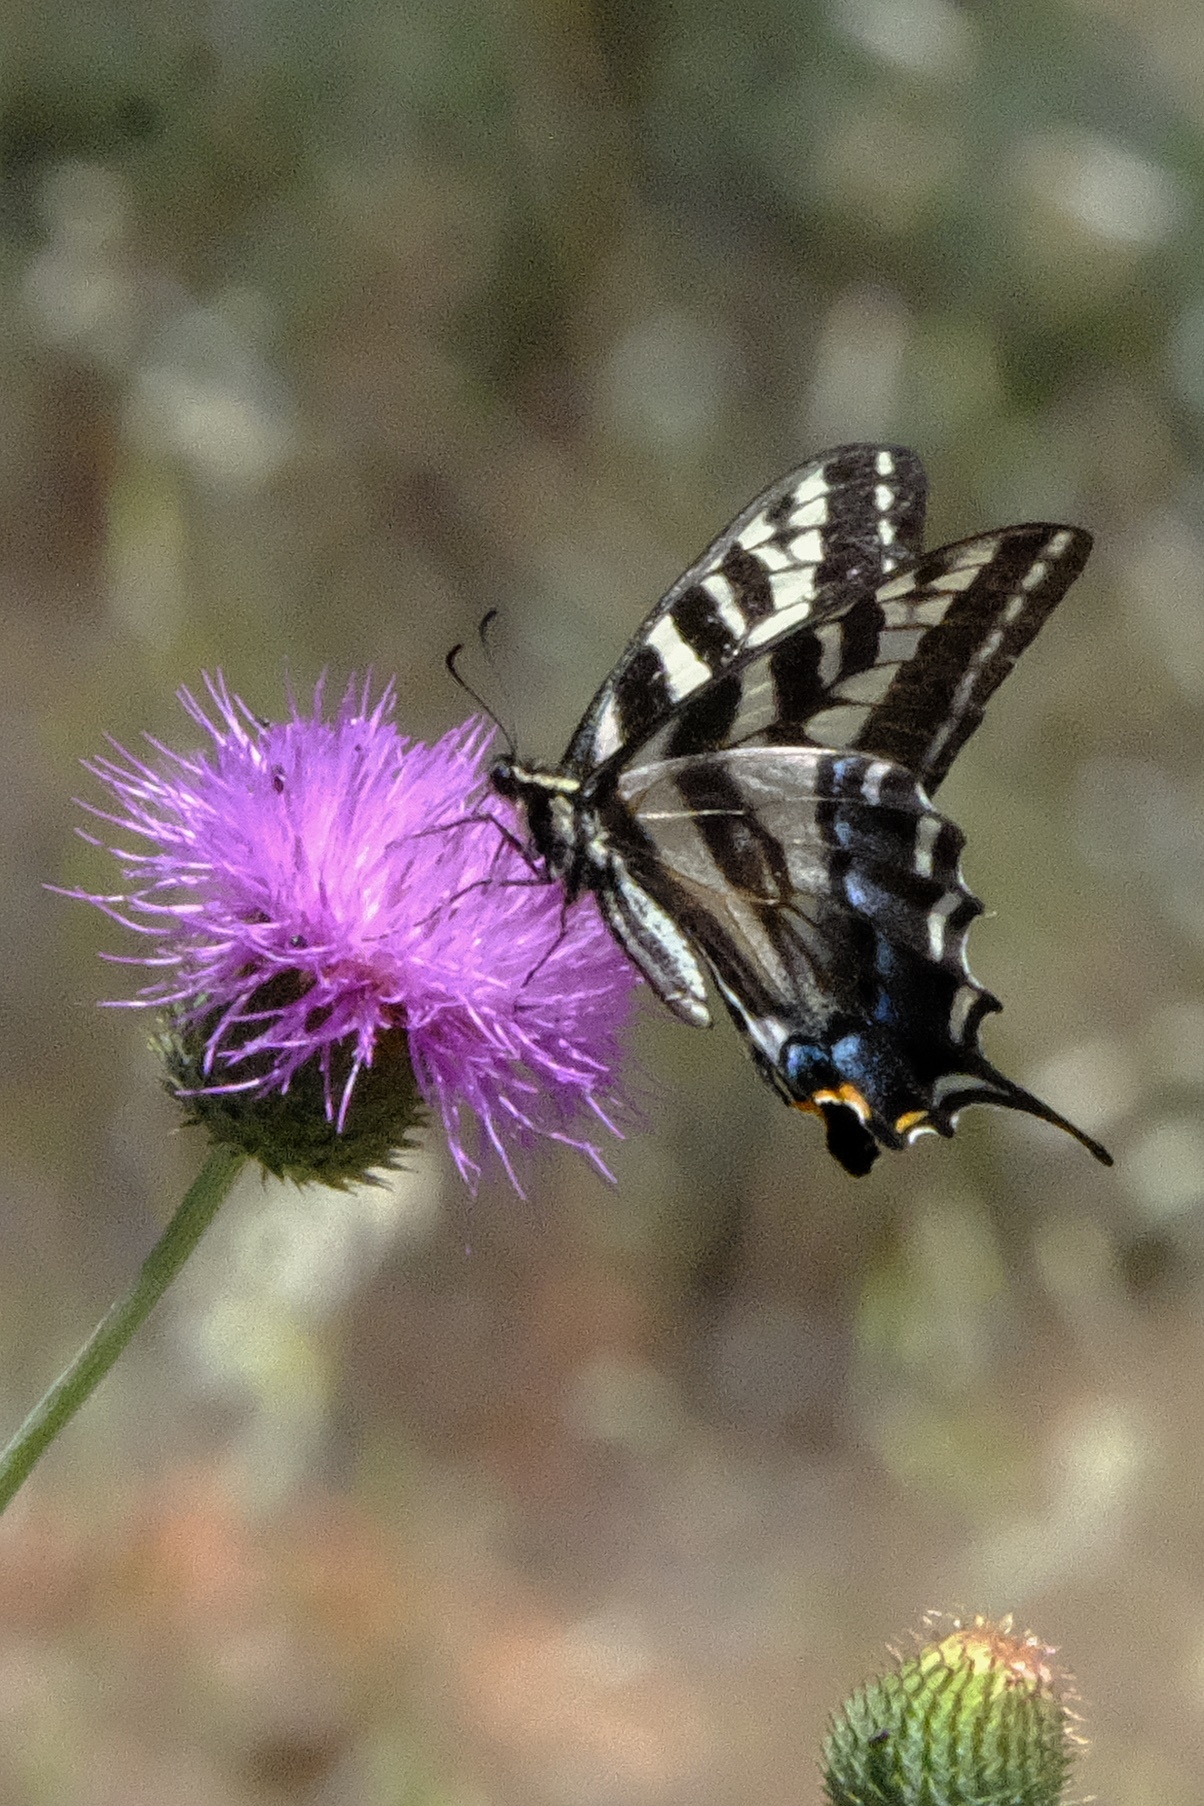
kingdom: Animalia
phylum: Arthropoda
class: Insecta
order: Lepidoptera
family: Papilionidae
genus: Papilio
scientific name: Papilio eurymedon
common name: Pale tiger swallowtail
